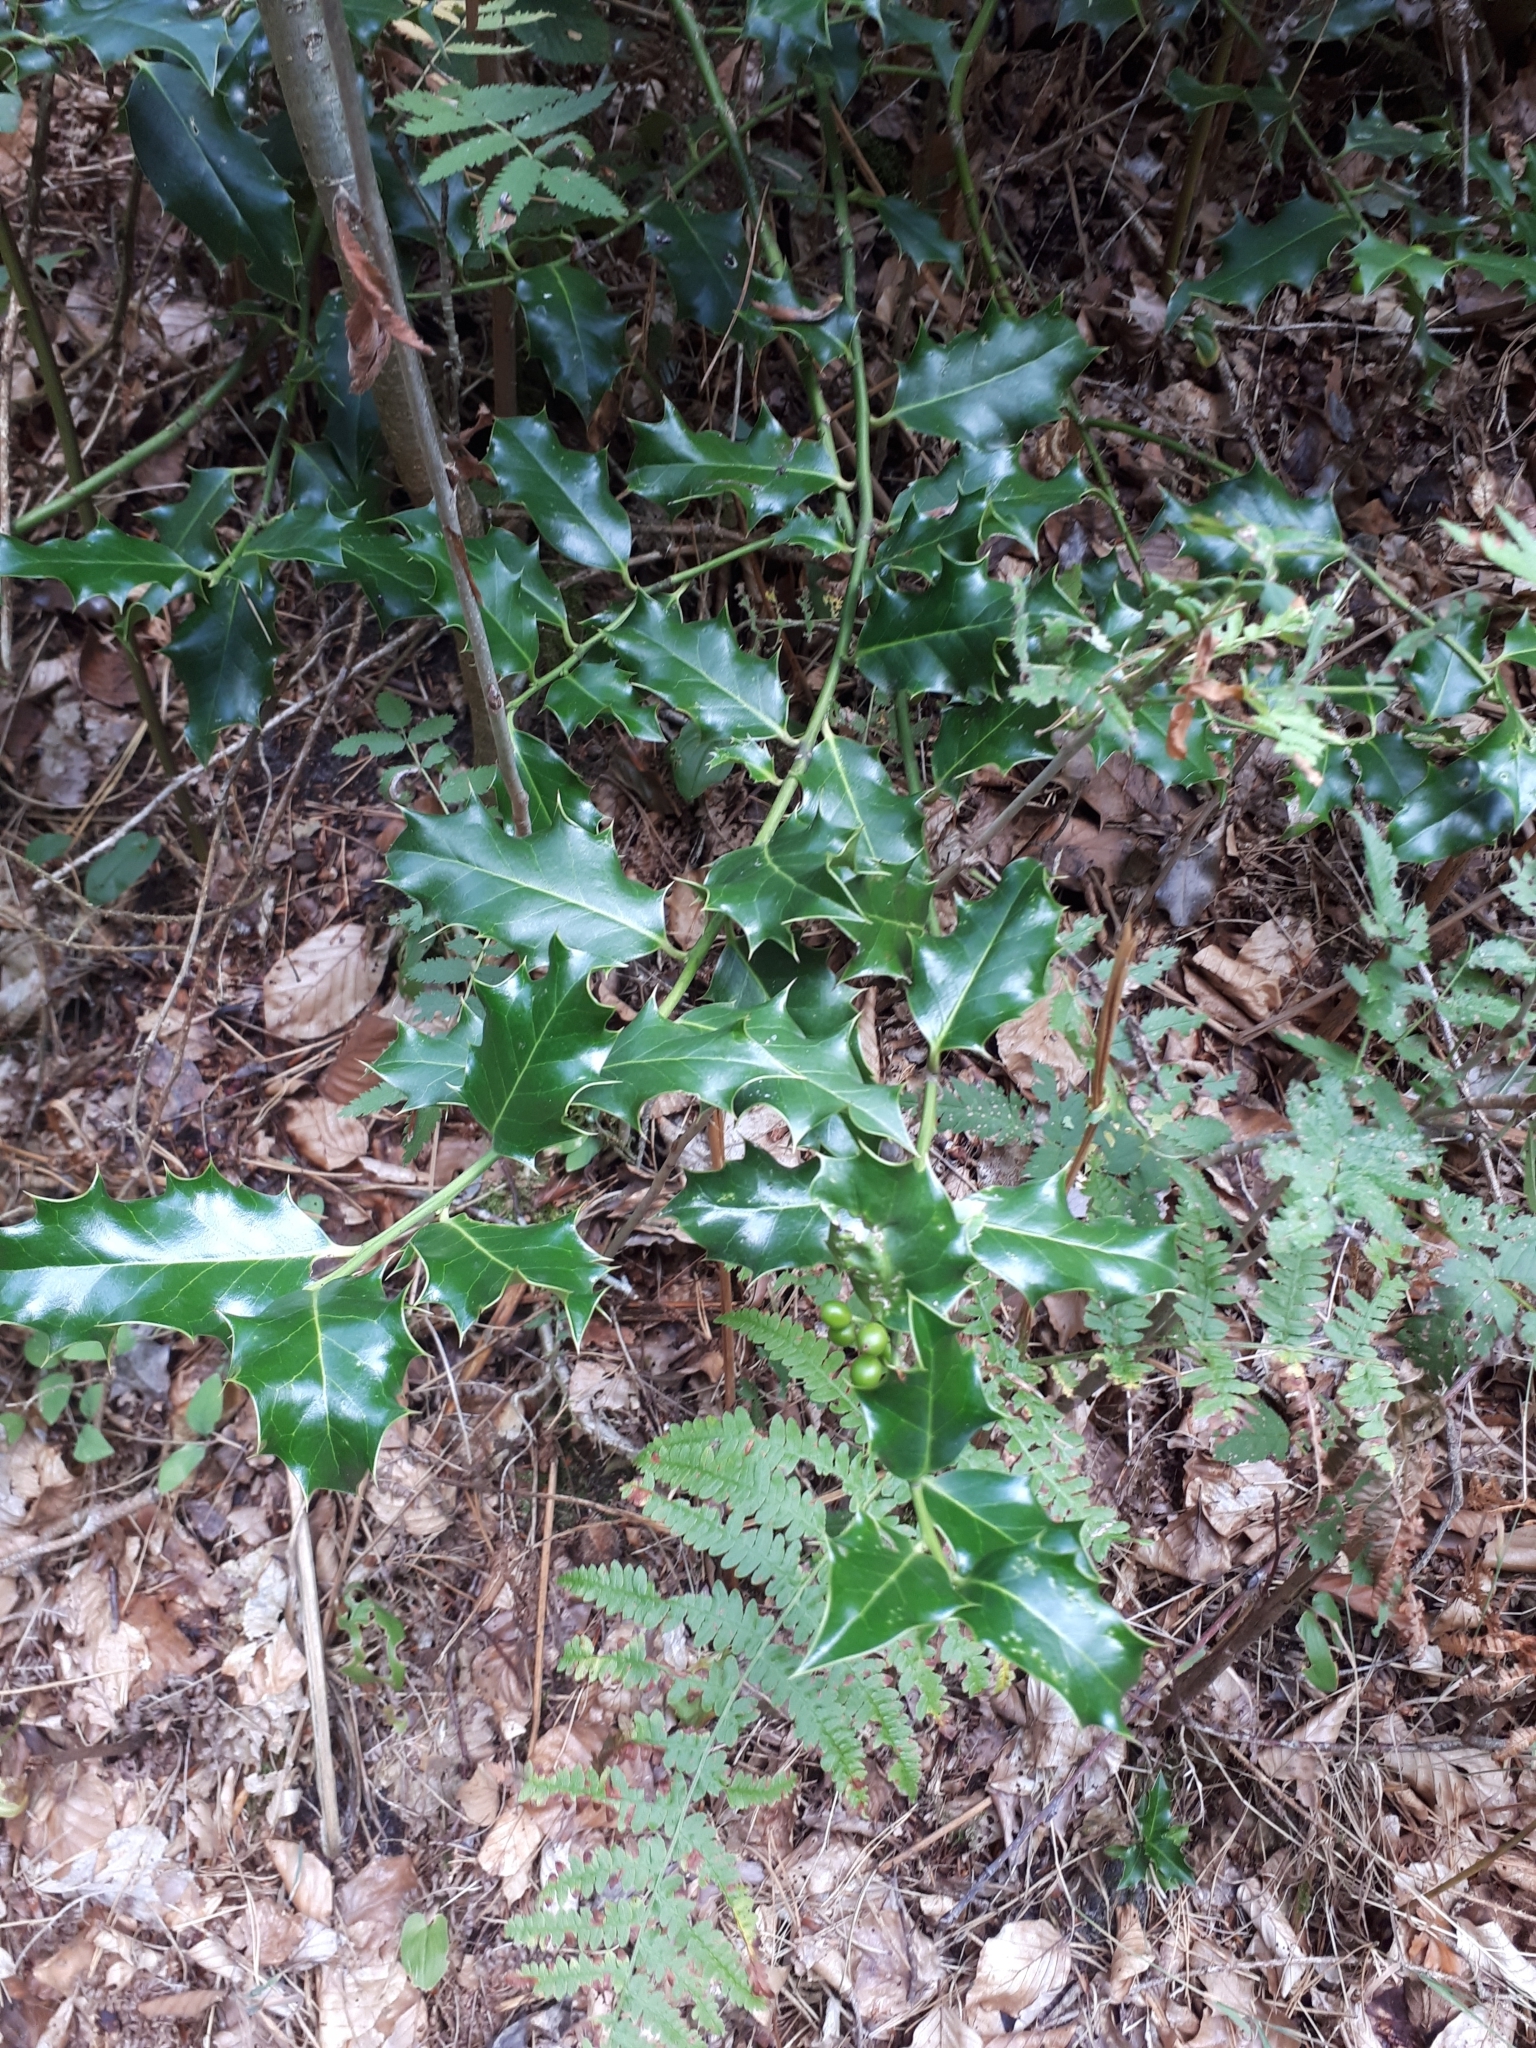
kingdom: Plantae
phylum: Tracheophyta
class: Magnoliopsida
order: Aquifoliales
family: Aquifoliaceae
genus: Ilex
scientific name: Ilex aquifolium
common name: English holly
